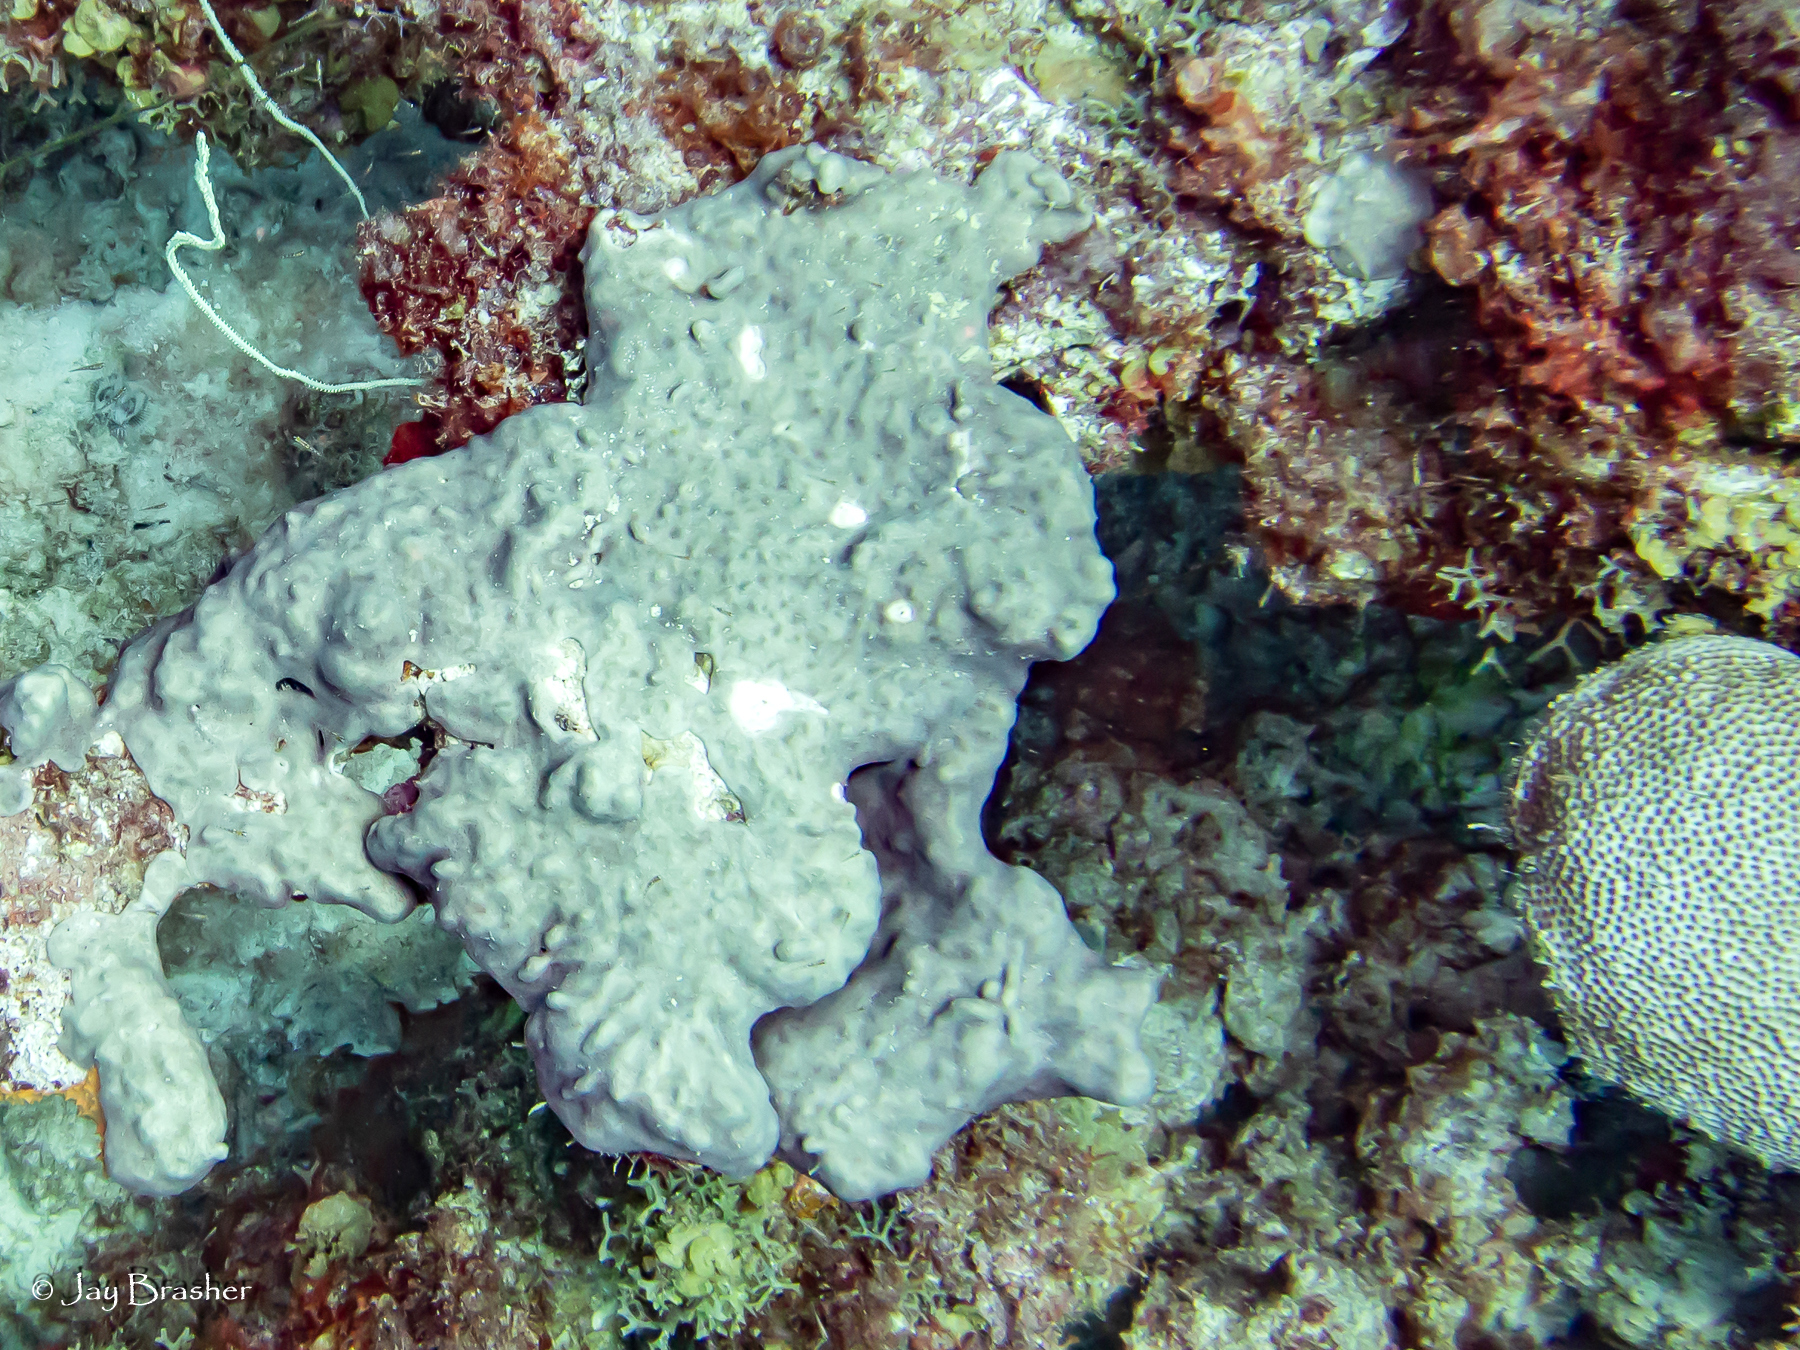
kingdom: Animalia
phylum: Chordata
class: Ascidiacea
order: Aplousobranchia
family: Didemnidae
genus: Trididemnum
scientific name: Trididemnum solidum
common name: Overgrowing mat tunicate
